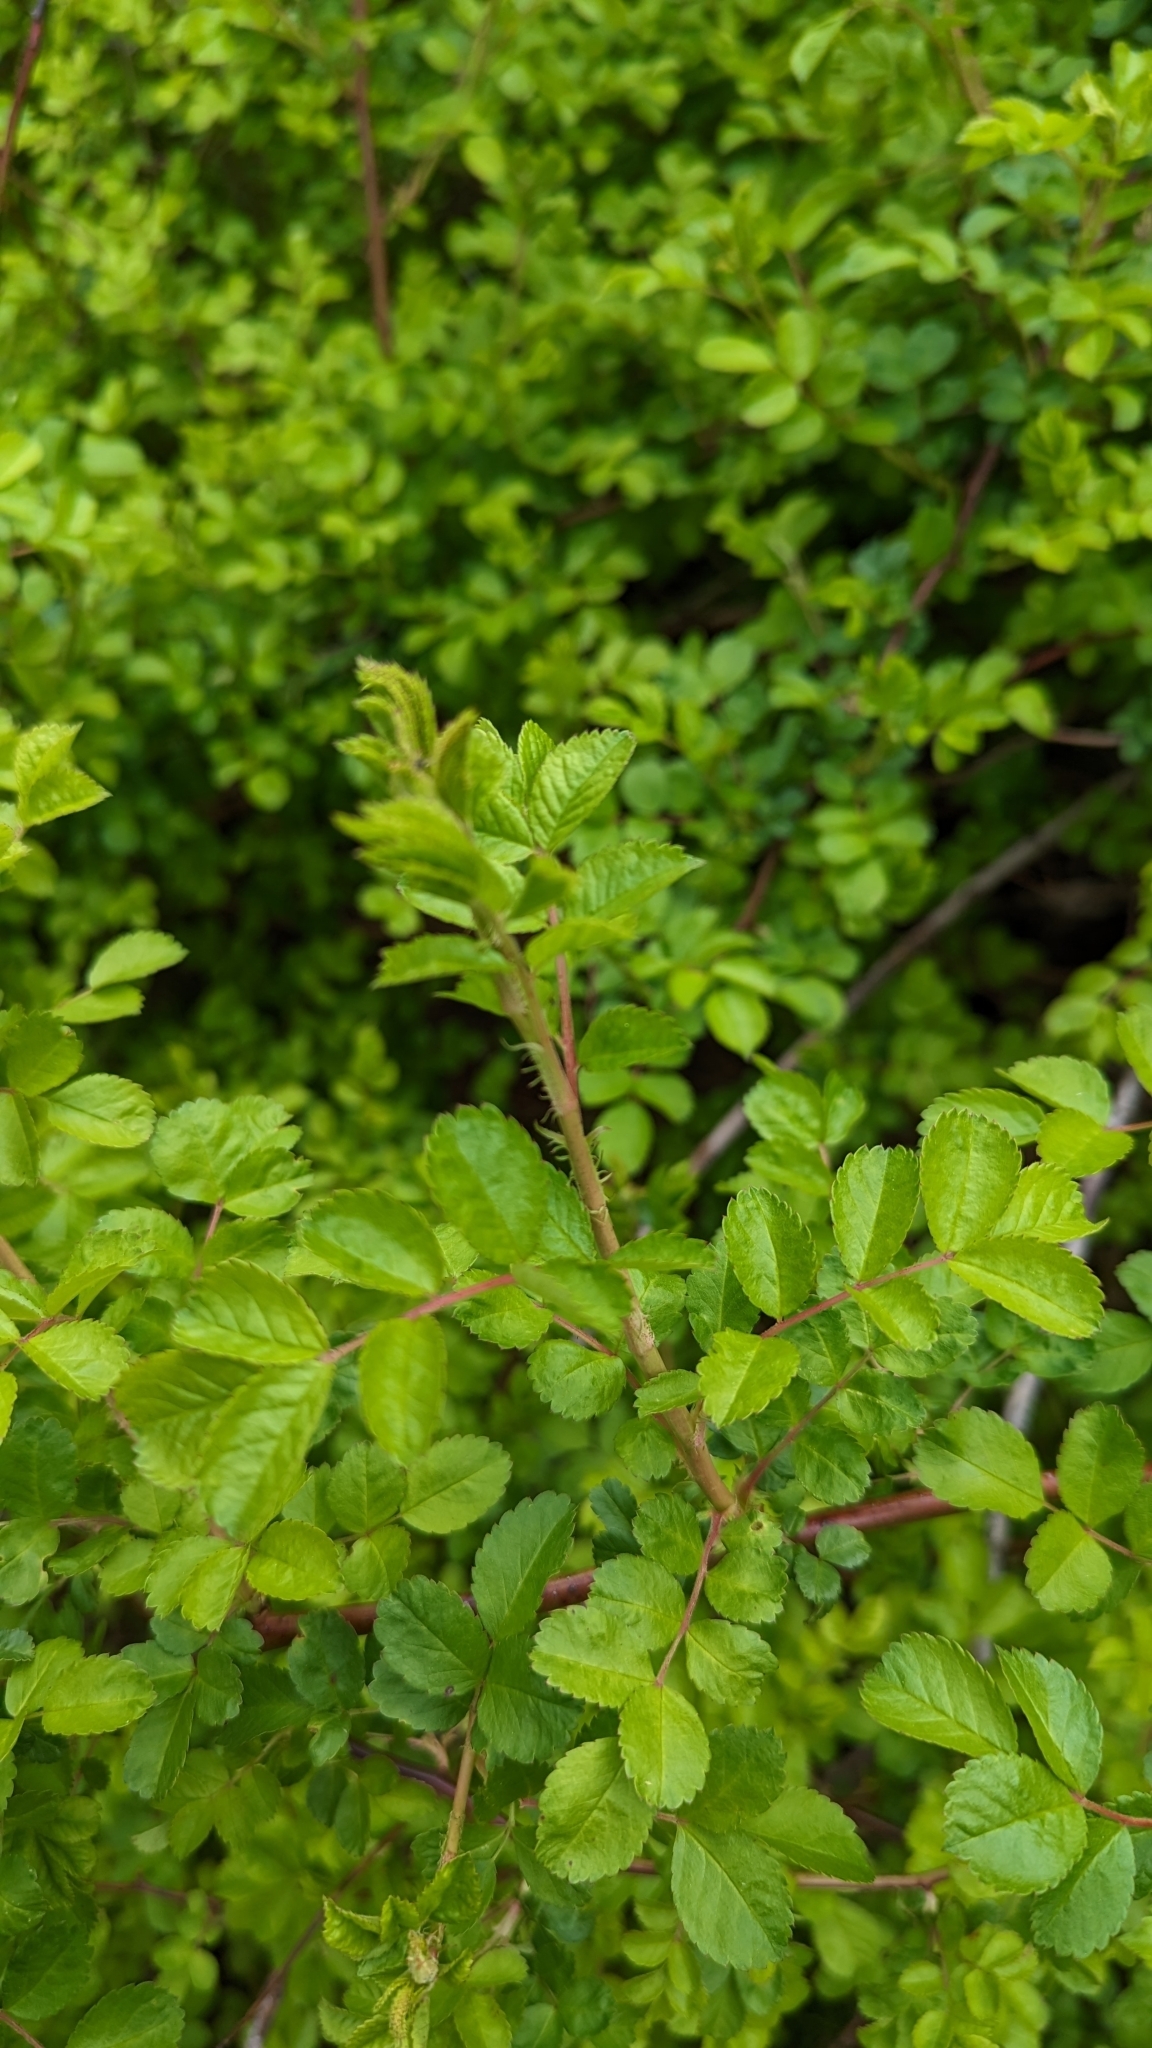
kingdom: Plantae
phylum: Tracheophyta
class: Magnoliopsida
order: Rosales
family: Rosaceae
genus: Rosa
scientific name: Rosa multiflora
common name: Multiflora rose
